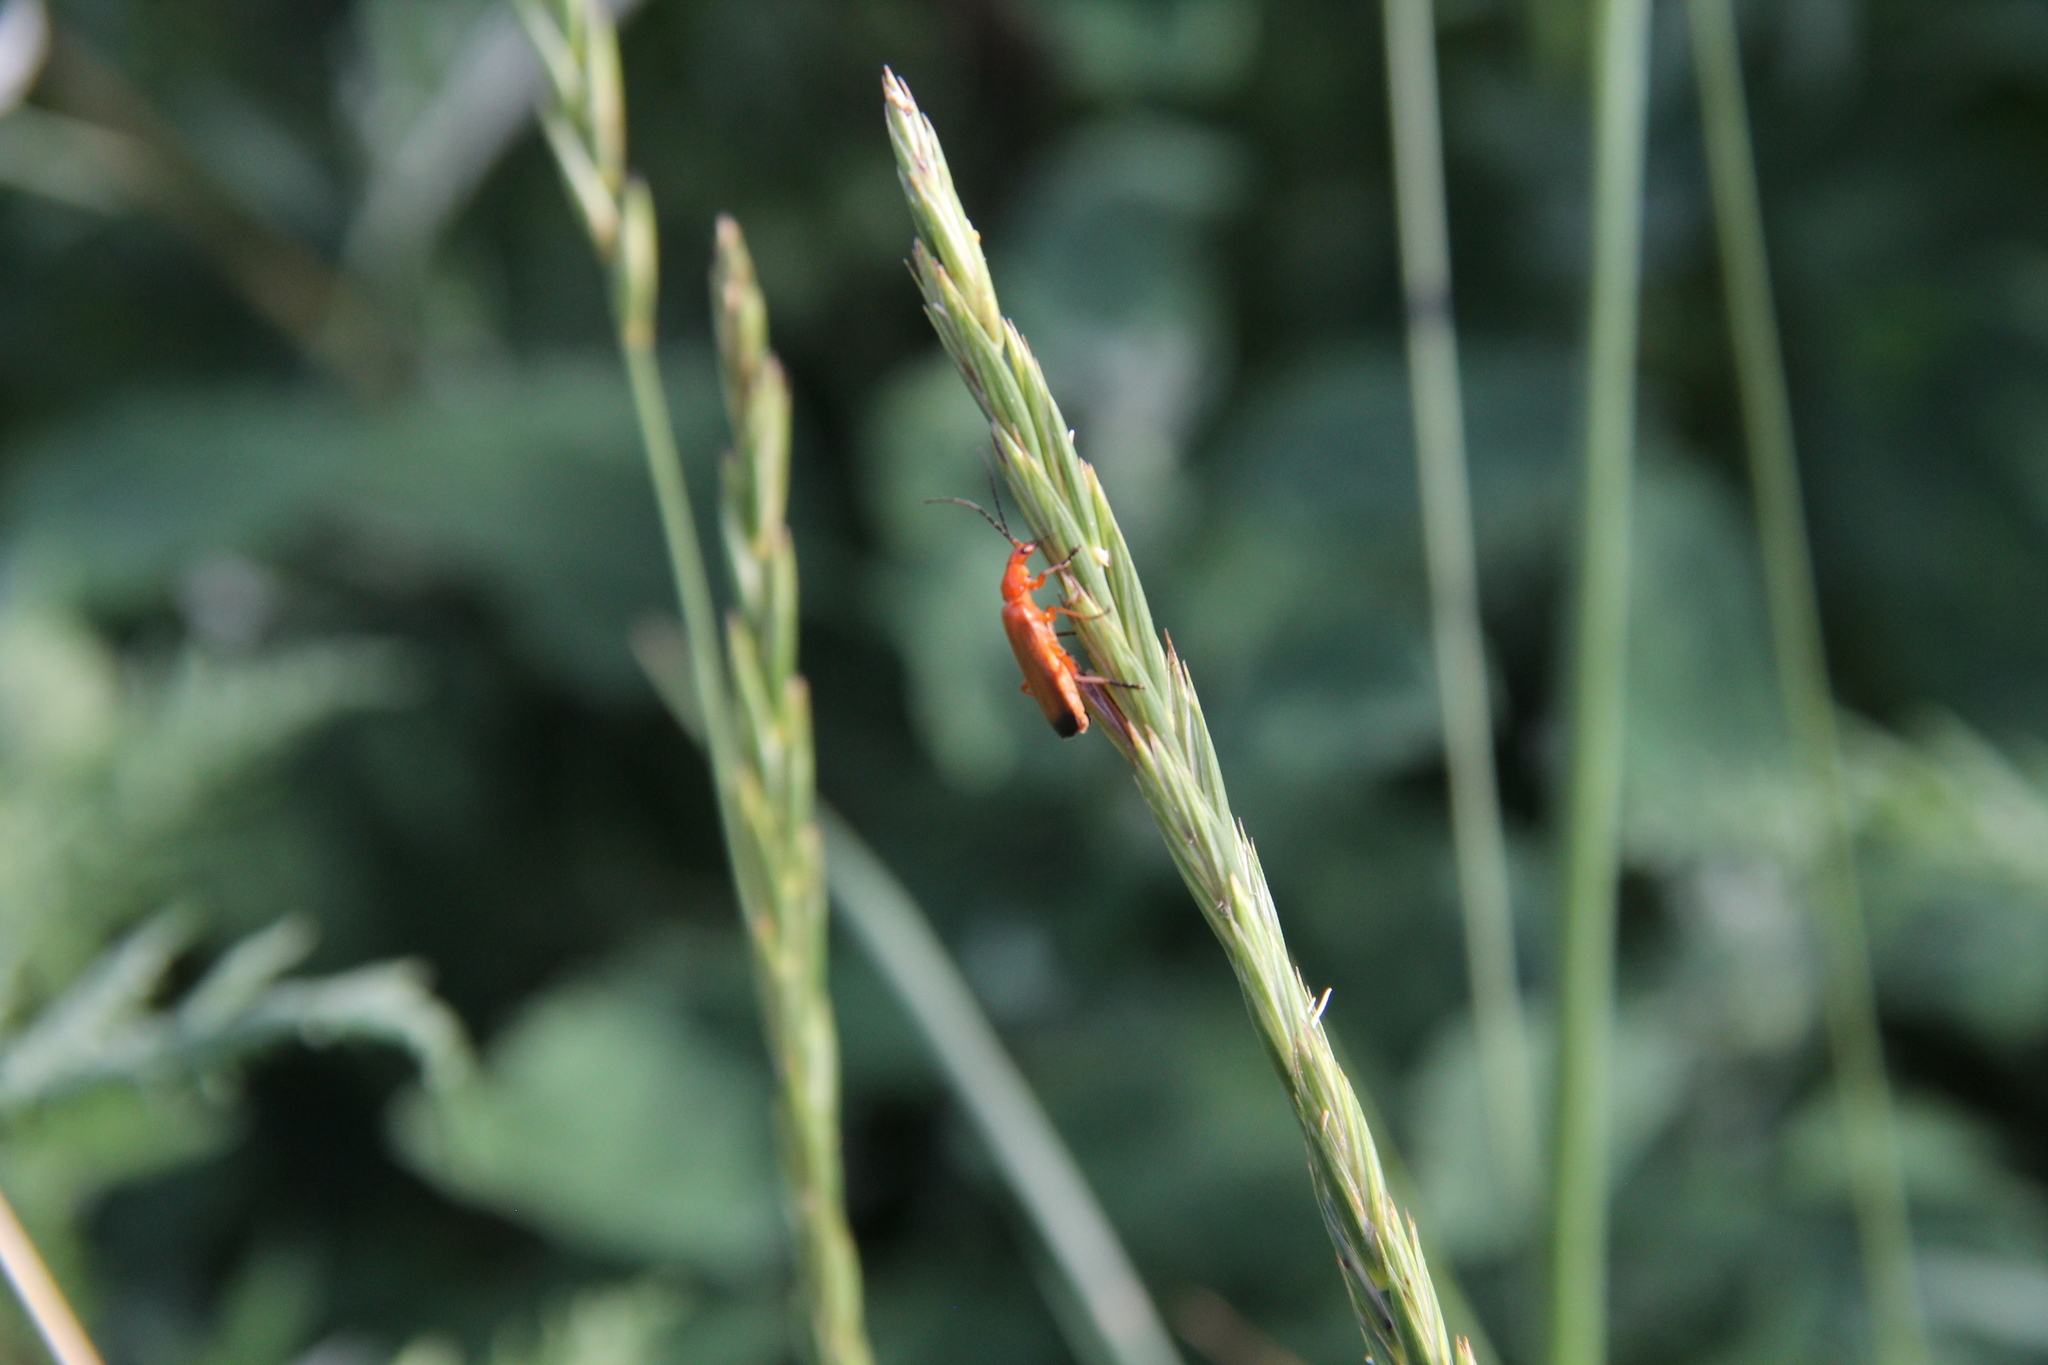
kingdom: Animalia
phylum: Arthropoda
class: Insecta
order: Coleoptera
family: Cantharidae
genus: Rhagonycha
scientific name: Rhagonycha fulva
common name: Common red soldier beetle
